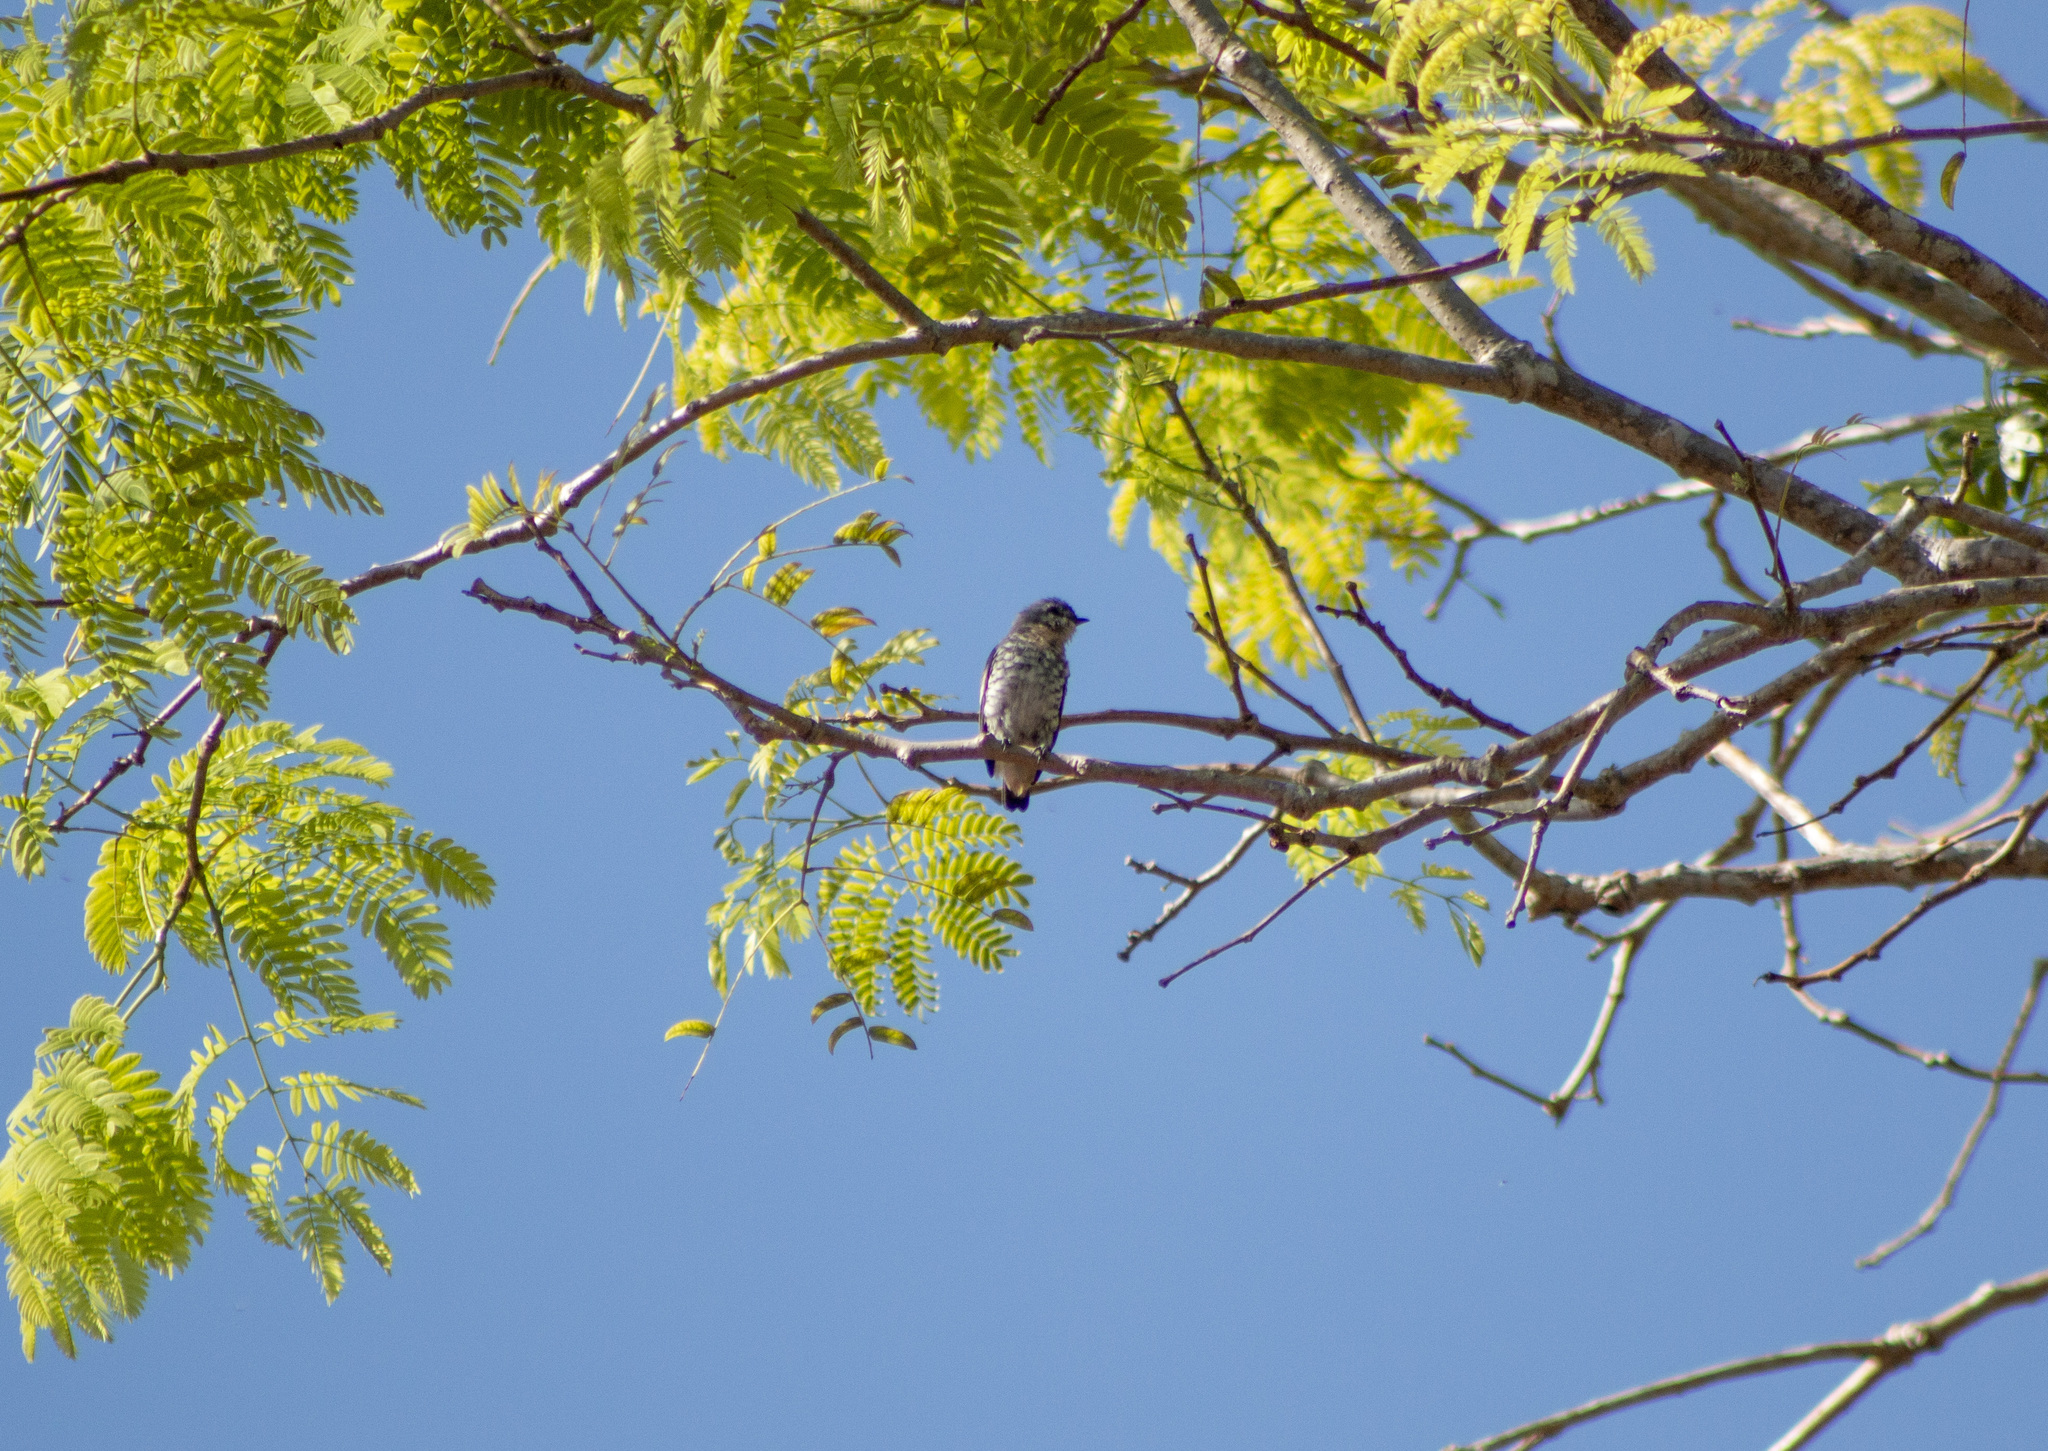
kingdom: Animalia
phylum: Chordata
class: Aves
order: Passeriformes
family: Cotingidae
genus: Iodopleura
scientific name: Iodopleura pipra
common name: Buff-throated purpletuft
